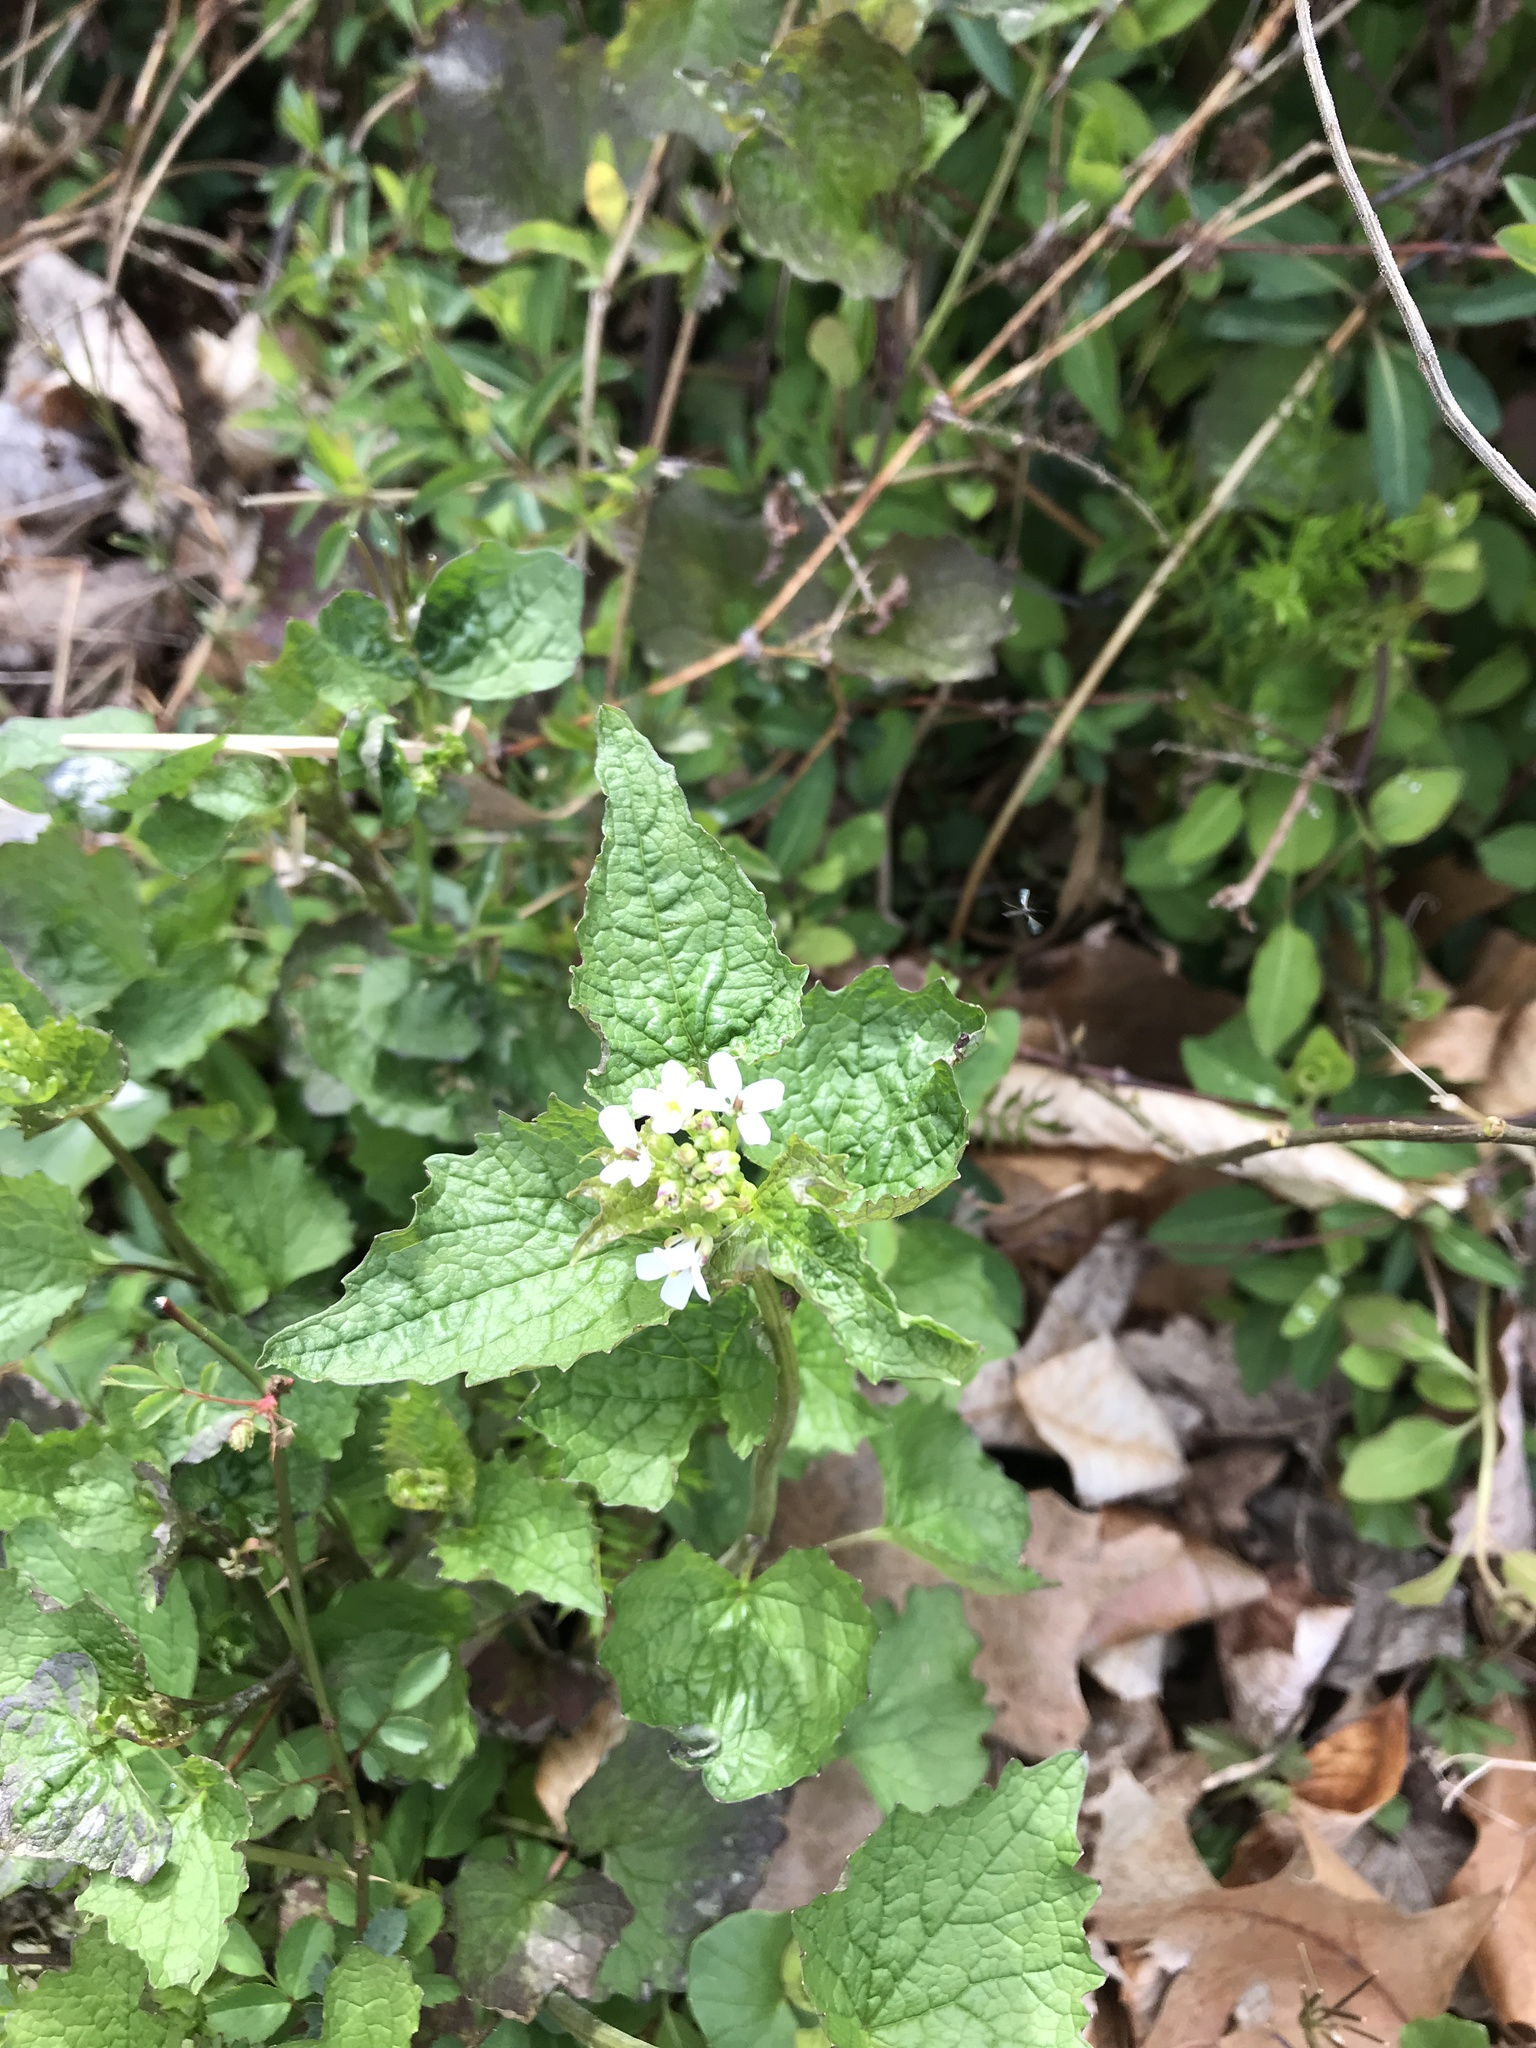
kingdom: Plantae
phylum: Tracheophyta
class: Magnoliopsida
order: Brassicales
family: Brassicaceae
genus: Alliaria
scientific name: Alliaria petiolata
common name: Garlic mustard
